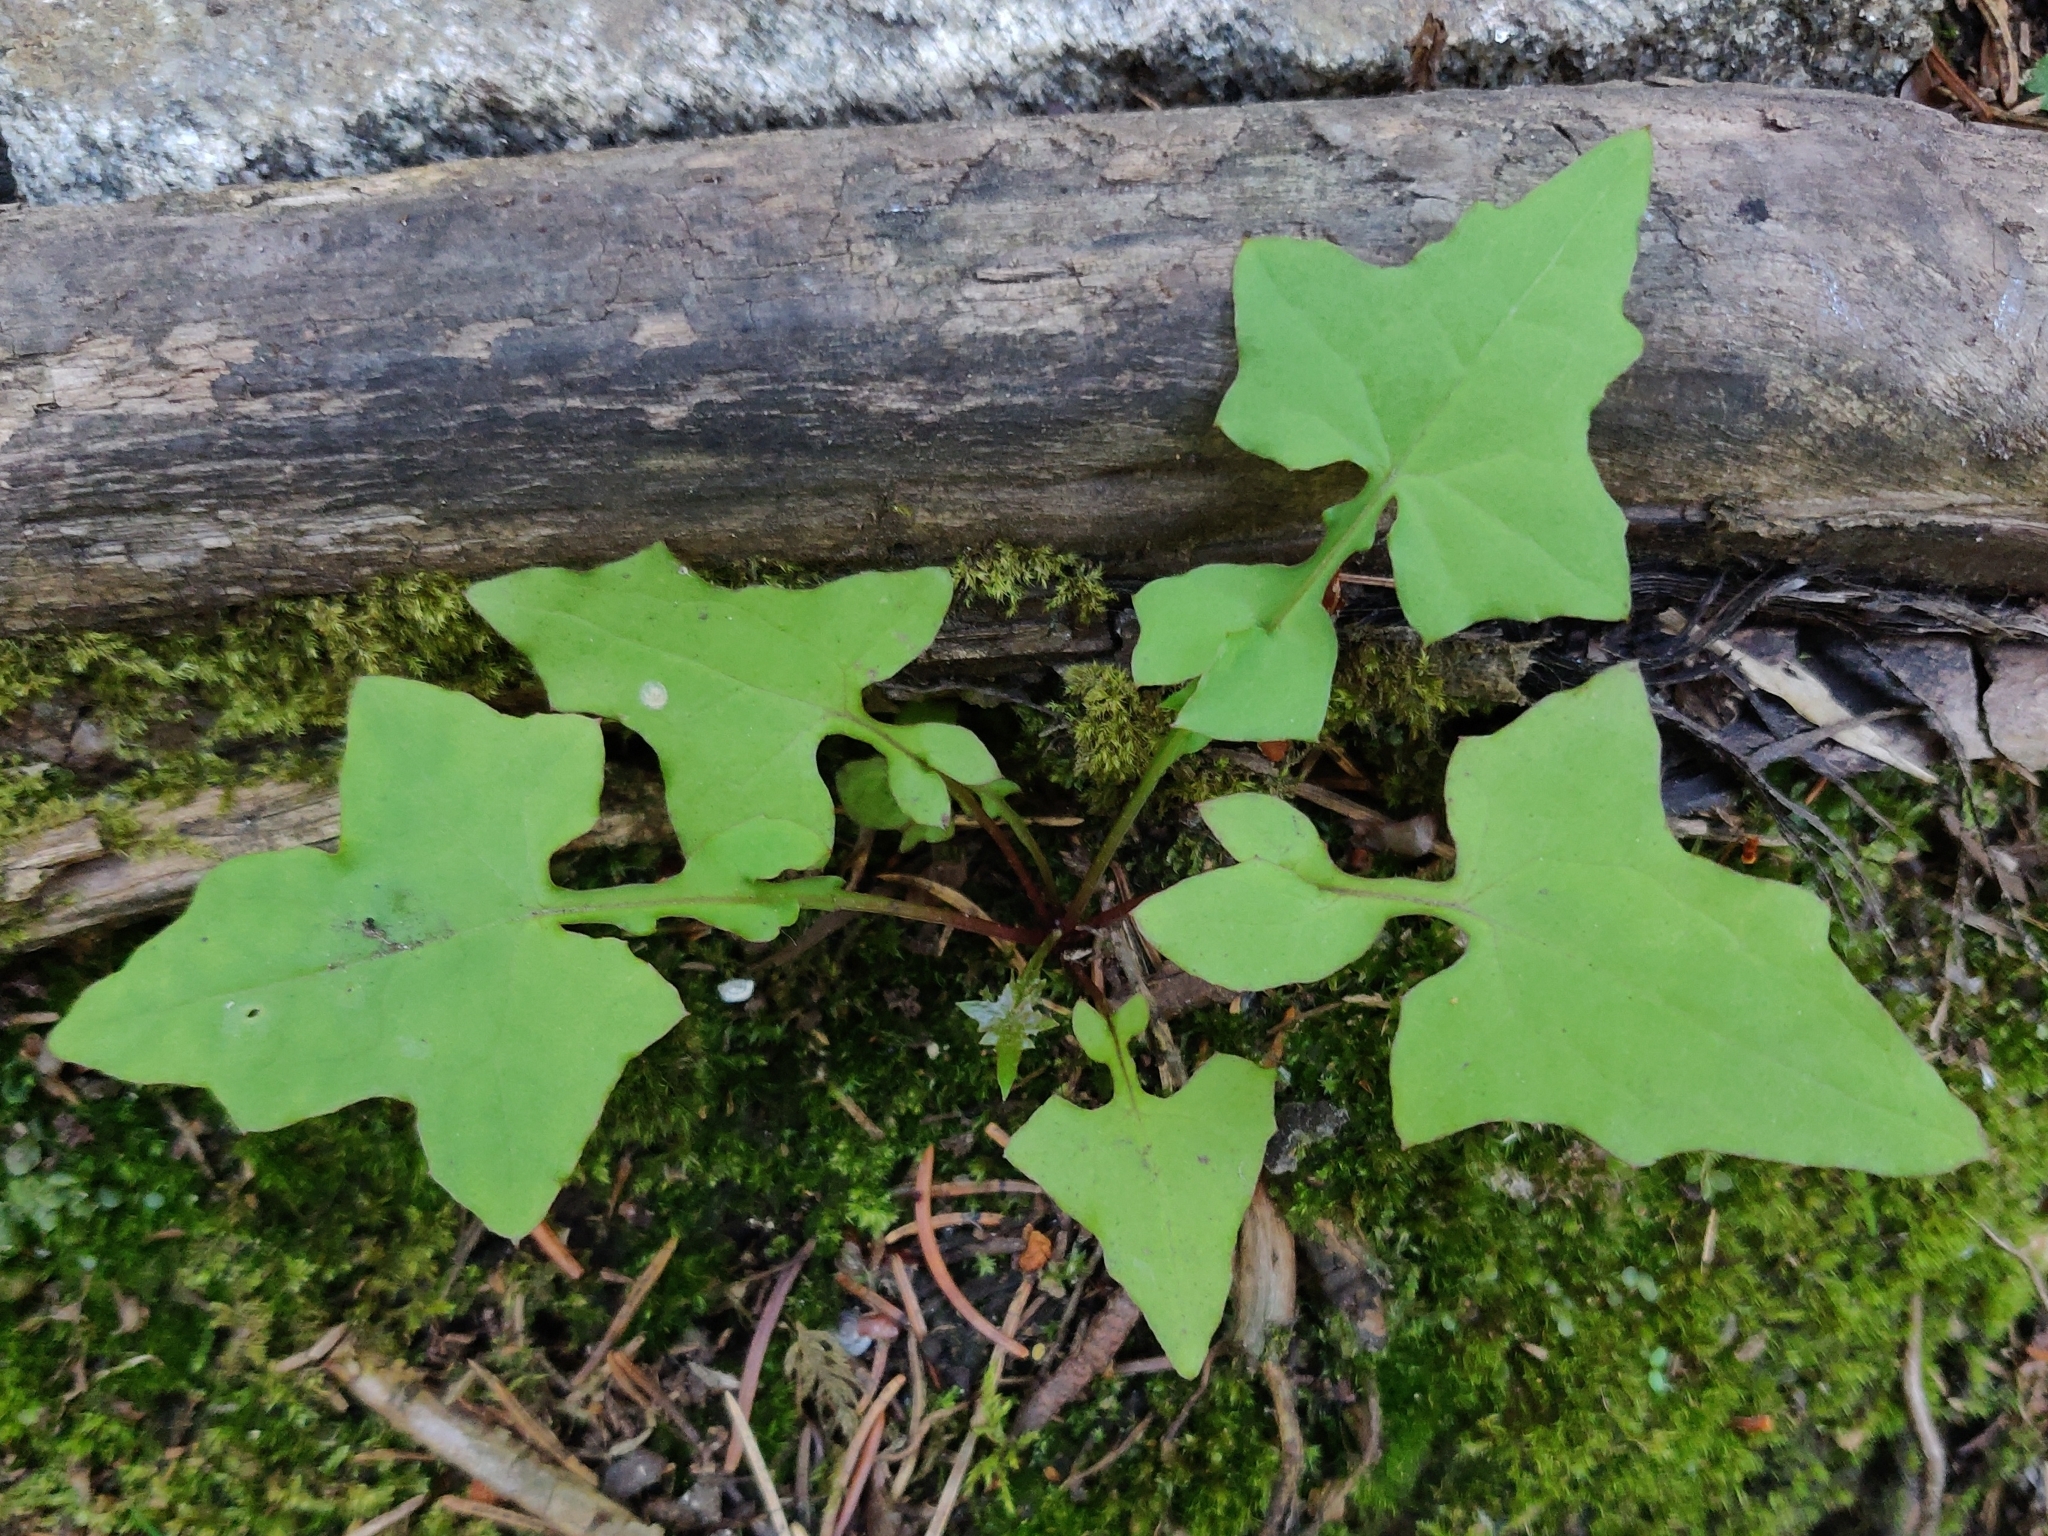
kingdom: Plantae
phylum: Tracheophyta
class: Magnoliopsida
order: Asterales
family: Asteraceae
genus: Mycelis
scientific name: Mycelis muralis
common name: Wall lettuce
